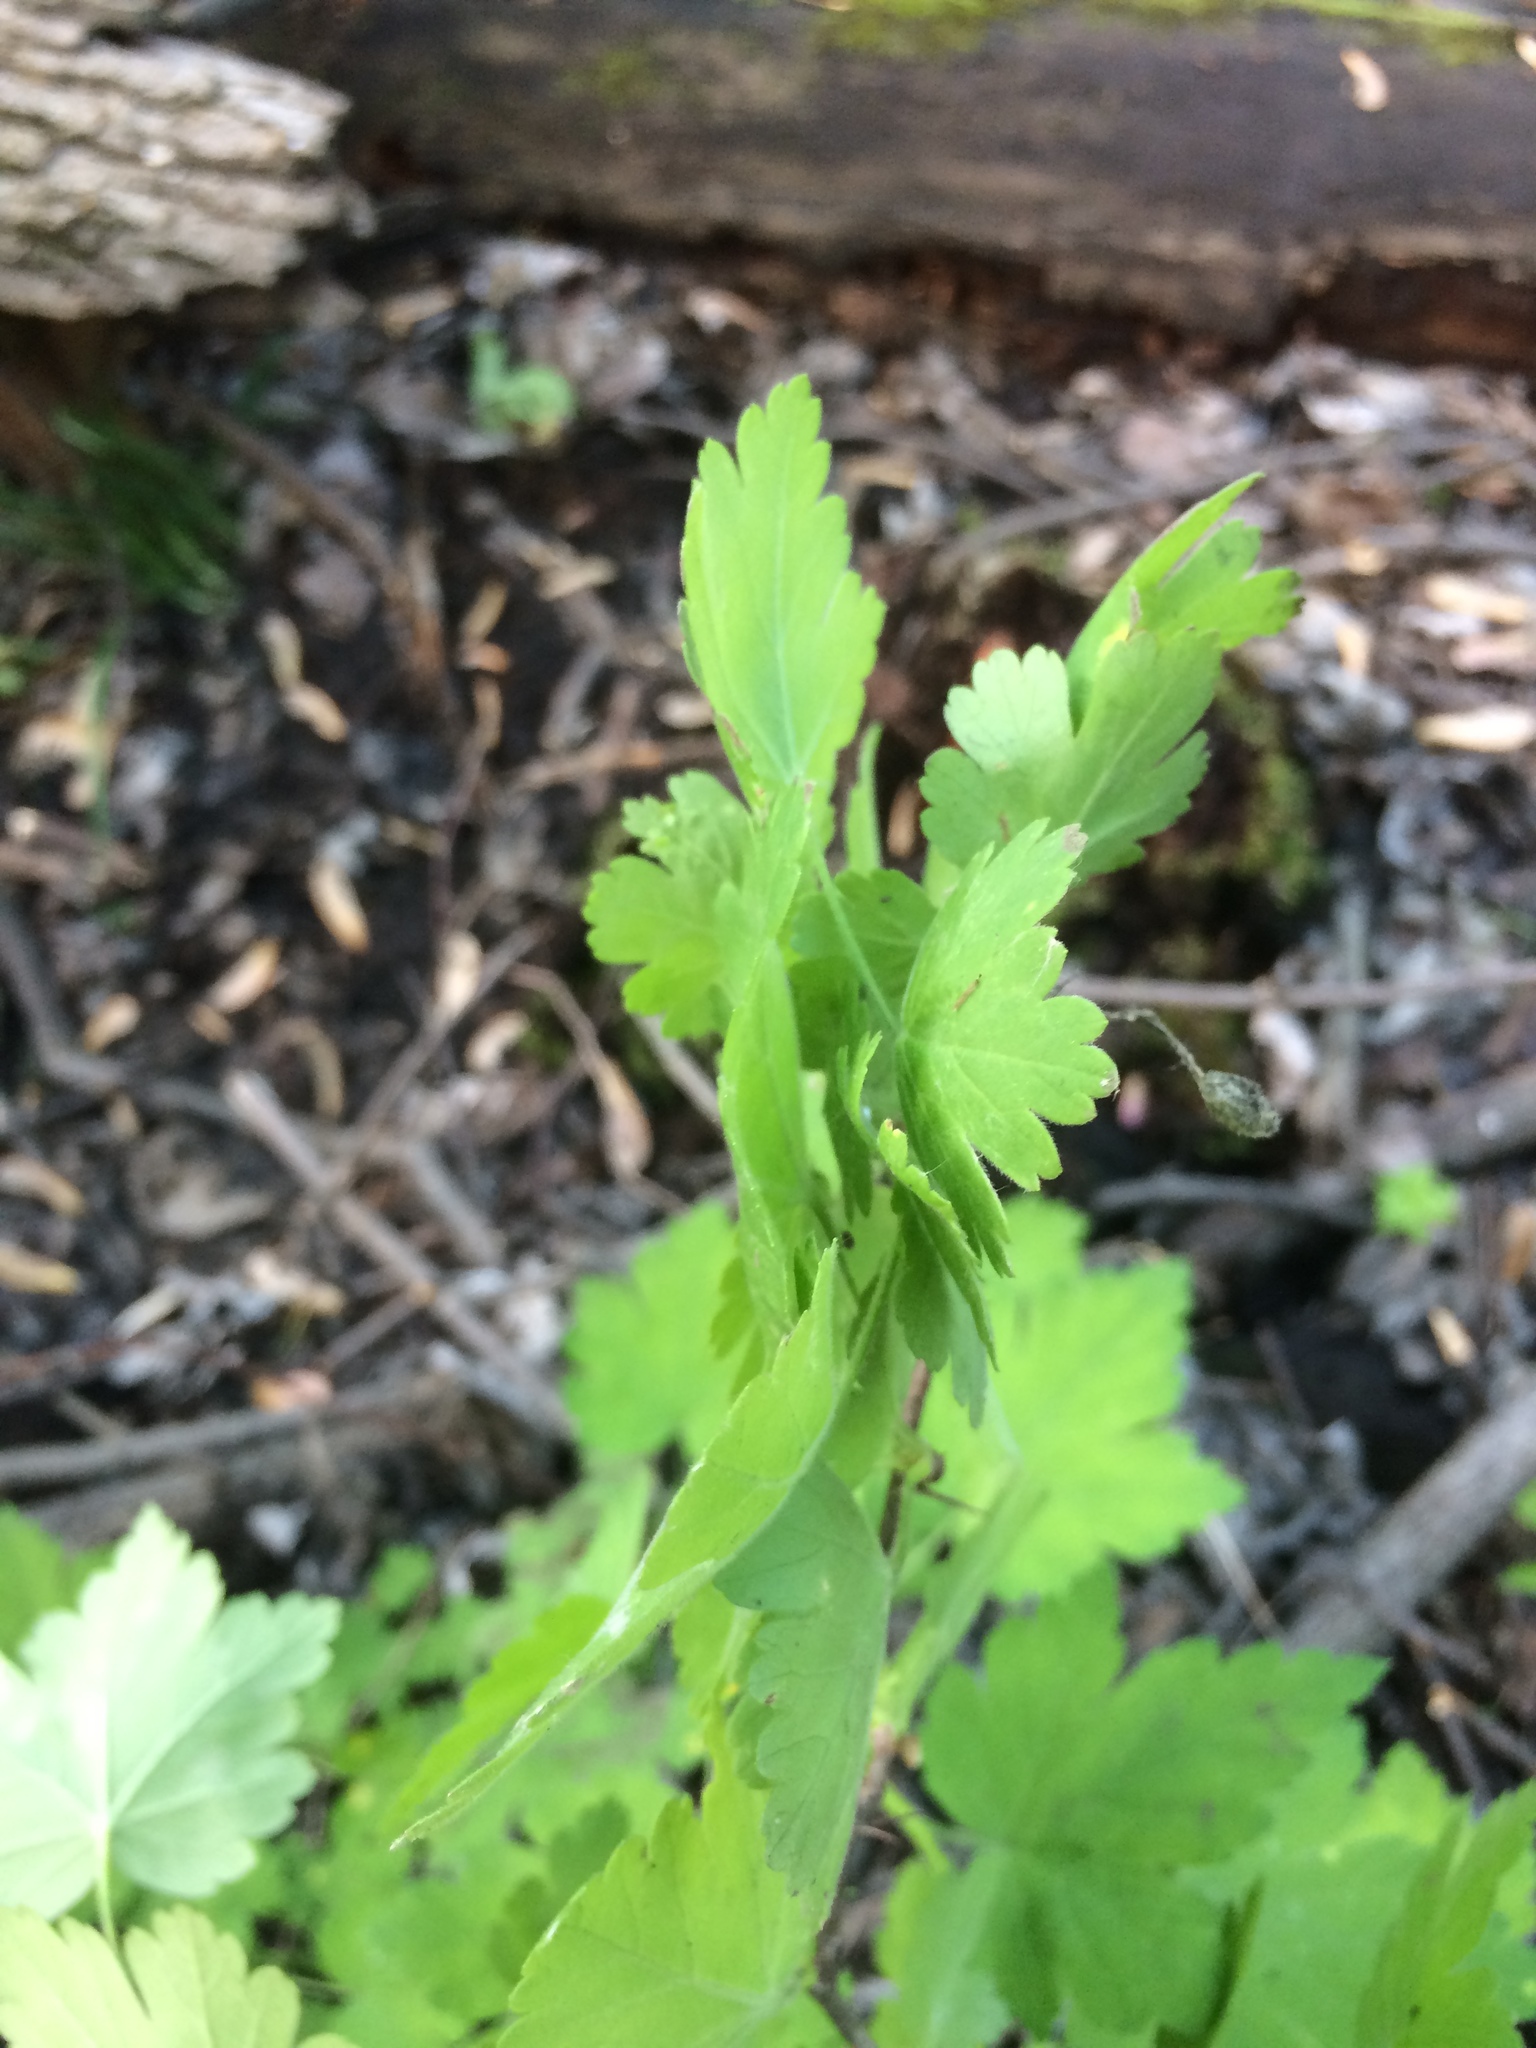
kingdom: Plantae
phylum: Tracheophyta
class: Magnoliopsida
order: Saxifragales
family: Grossulariaceae
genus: Ribes
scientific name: Ribes cynosbati
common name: American gooseberry
